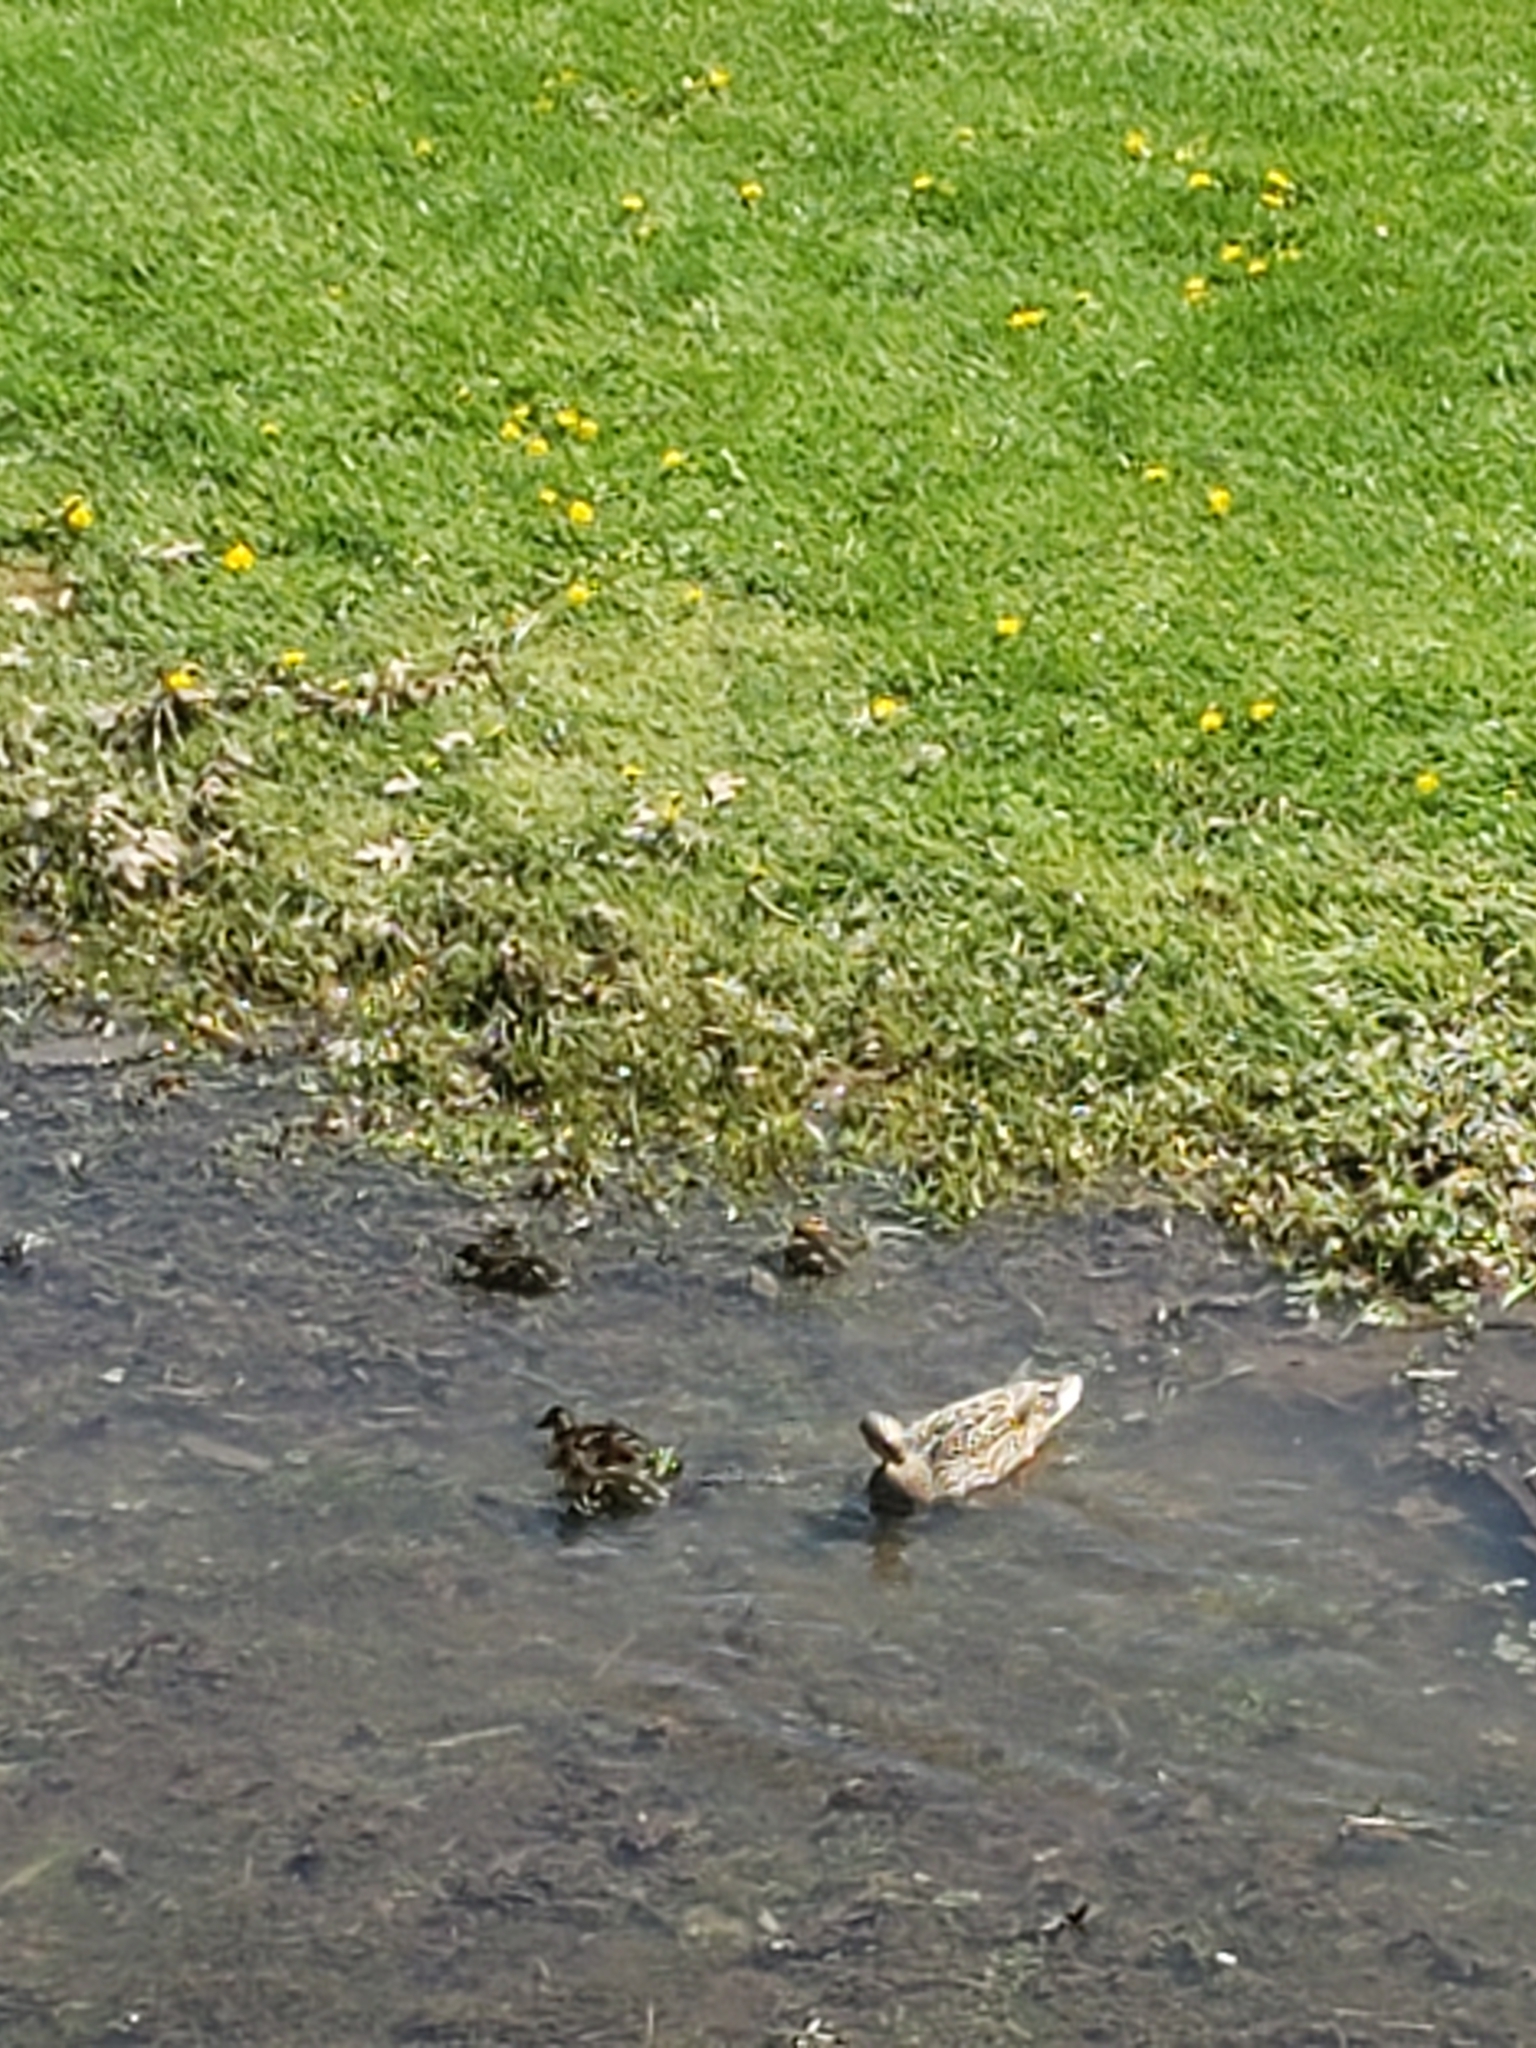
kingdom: Animalia
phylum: Chordata
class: Aves
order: Anseriformes
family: Anatidae
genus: Anas
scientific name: Anas platyrhynchos
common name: Mallard
